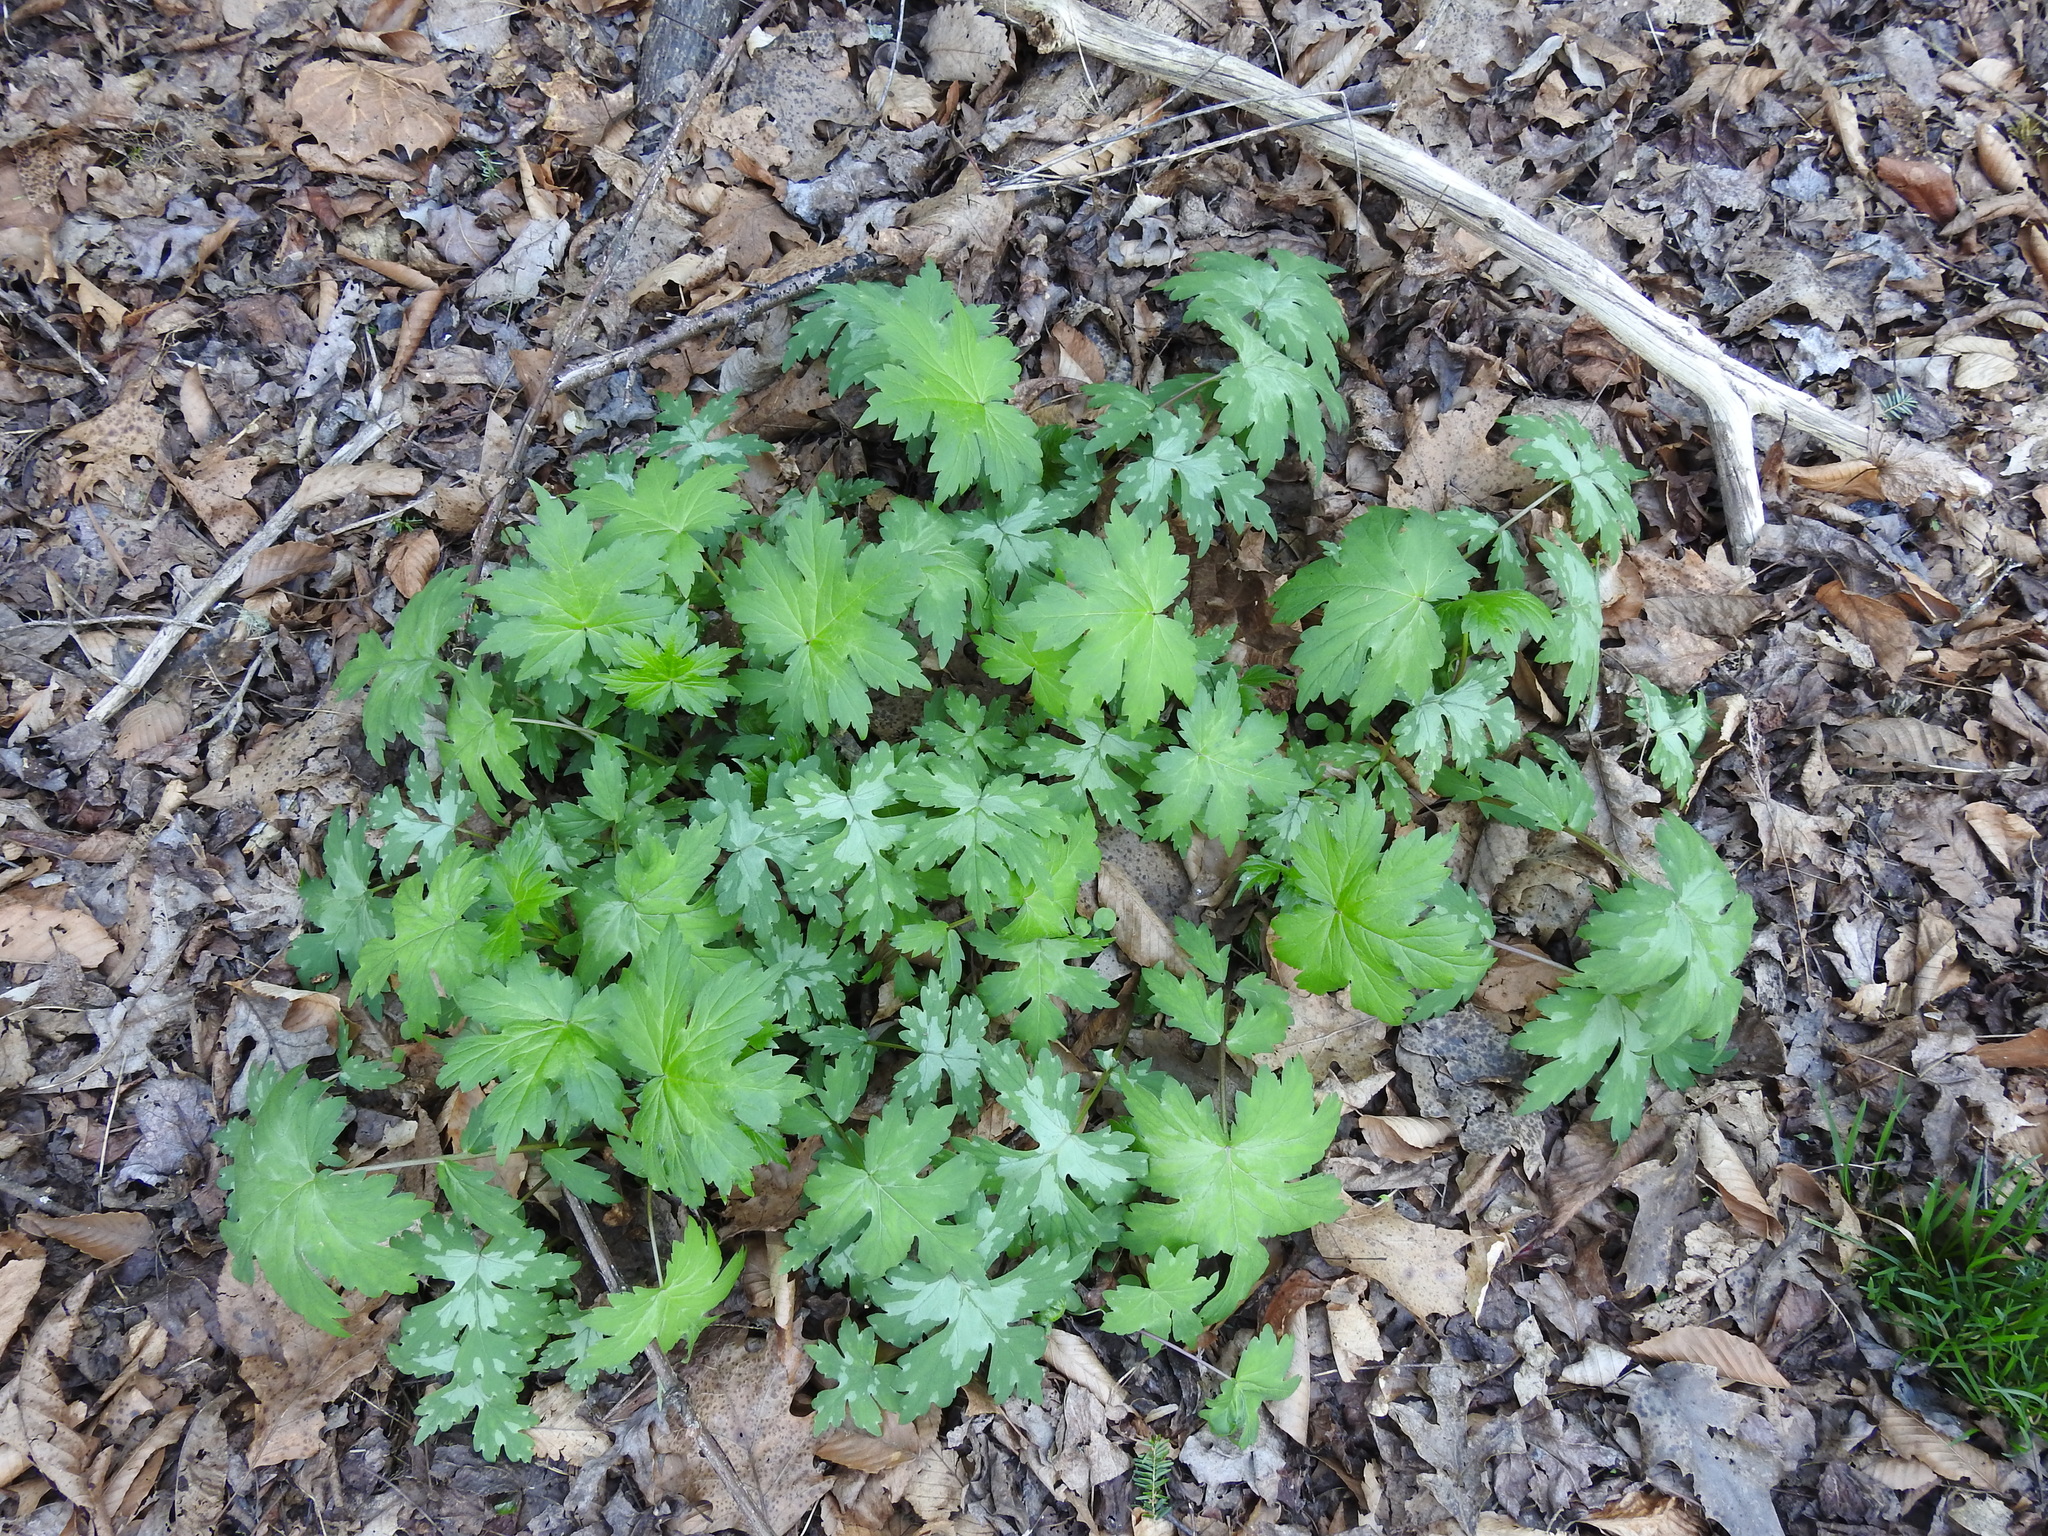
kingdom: Plantae
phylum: Tracheophyta
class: Magnoliopsida
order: Boraginales
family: Hydrophyllaceae
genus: Hydrophyllum
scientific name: Hydrophyllum canadense
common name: Canada waterleaf
